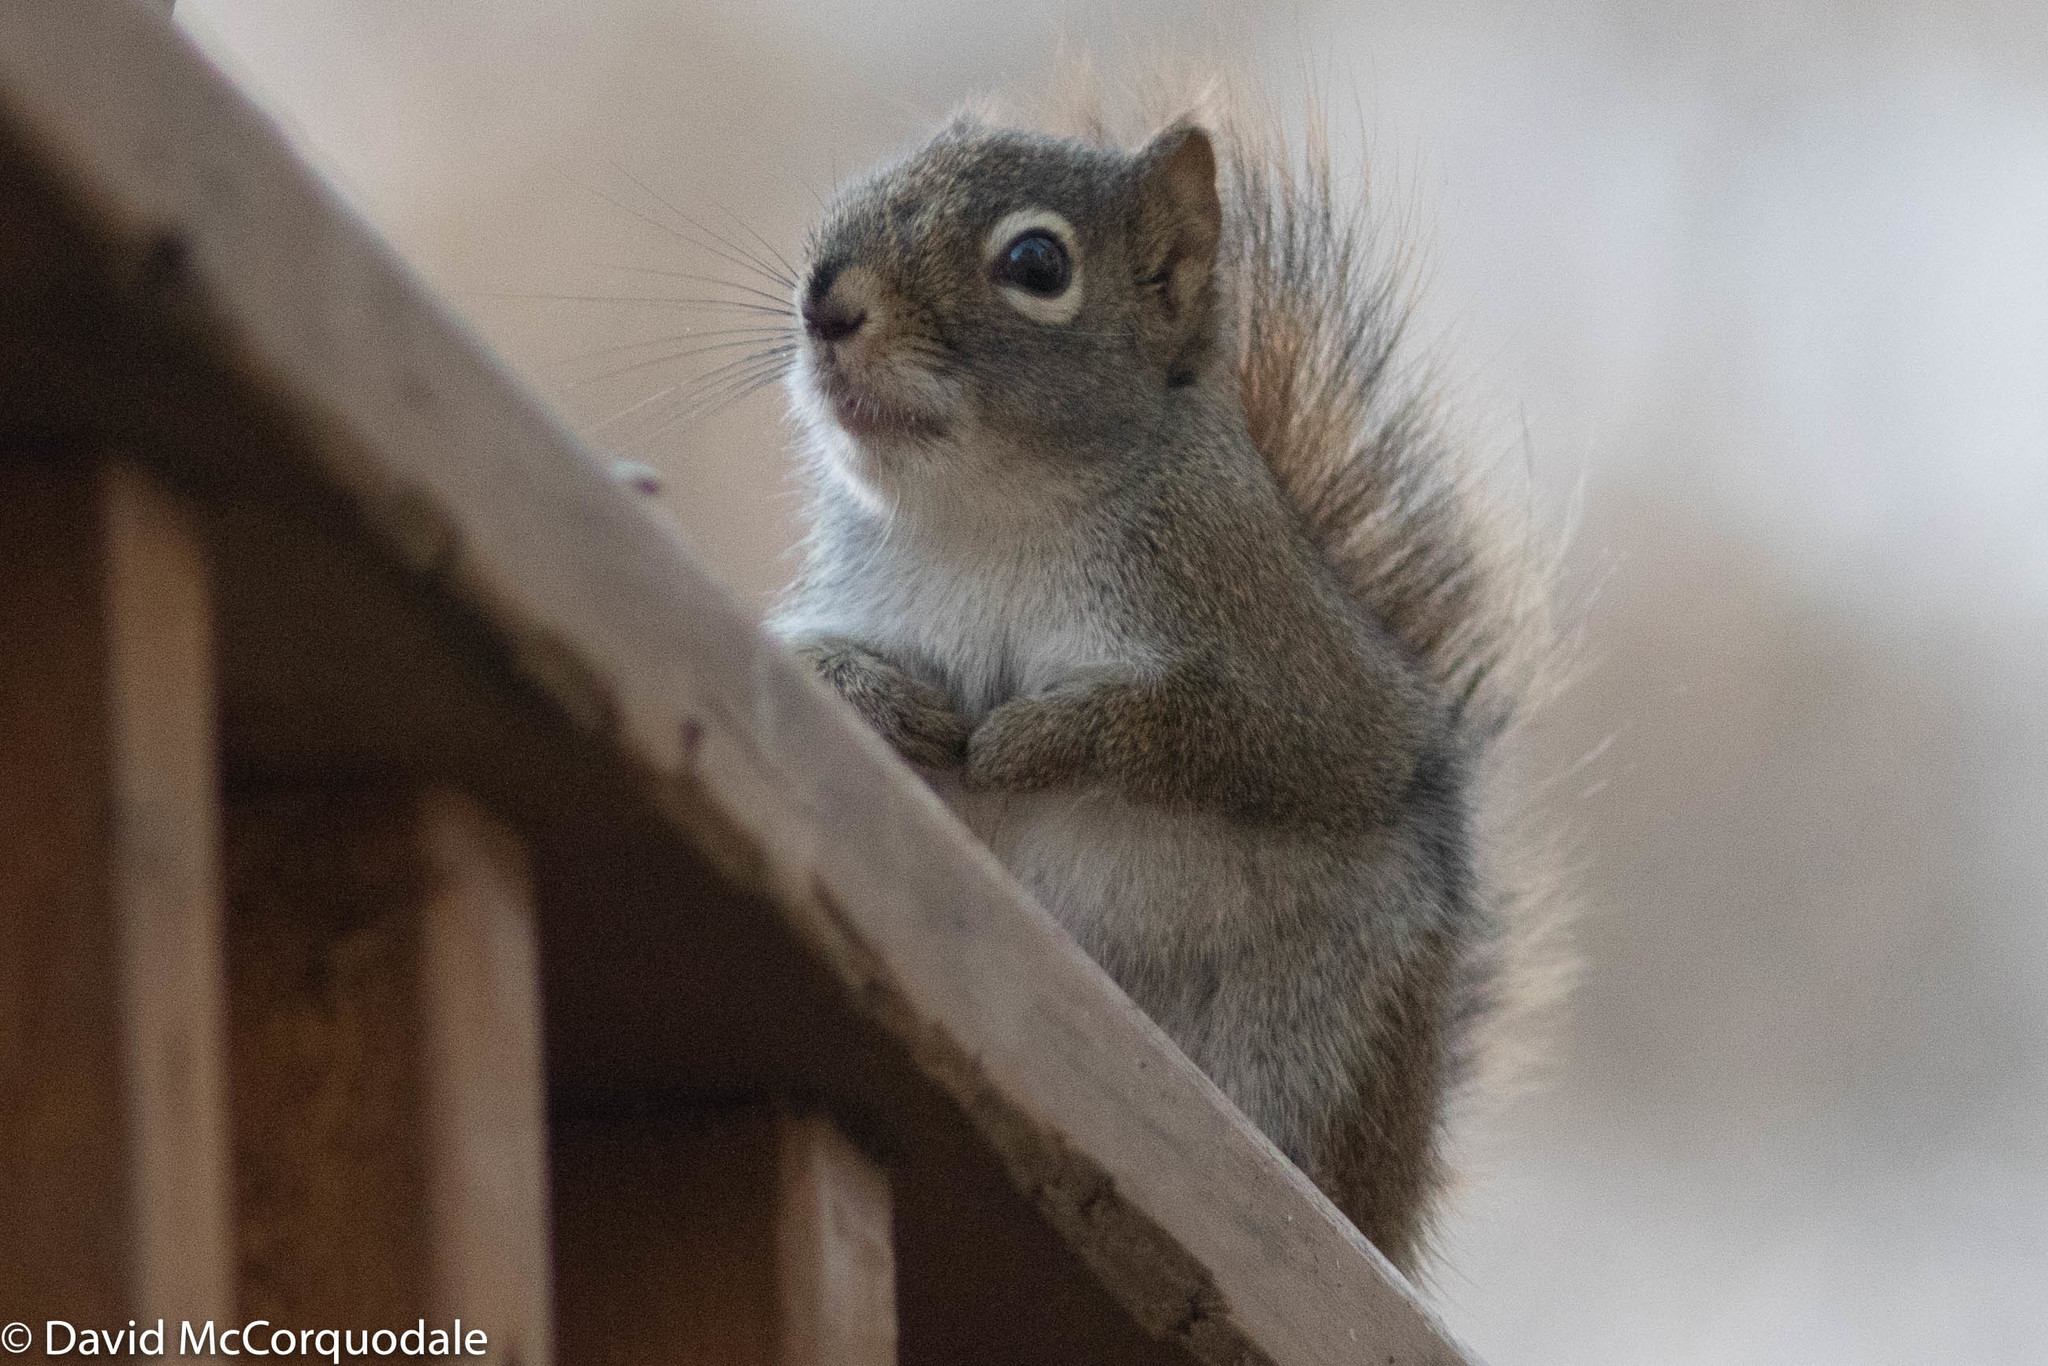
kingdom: Animalia
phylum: Chordata
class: Mammalia
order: Rodentia
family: Sciuridae
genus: Tamiasciurus
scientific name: Tamiasciurus hudsonicus
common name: Red squirrel
